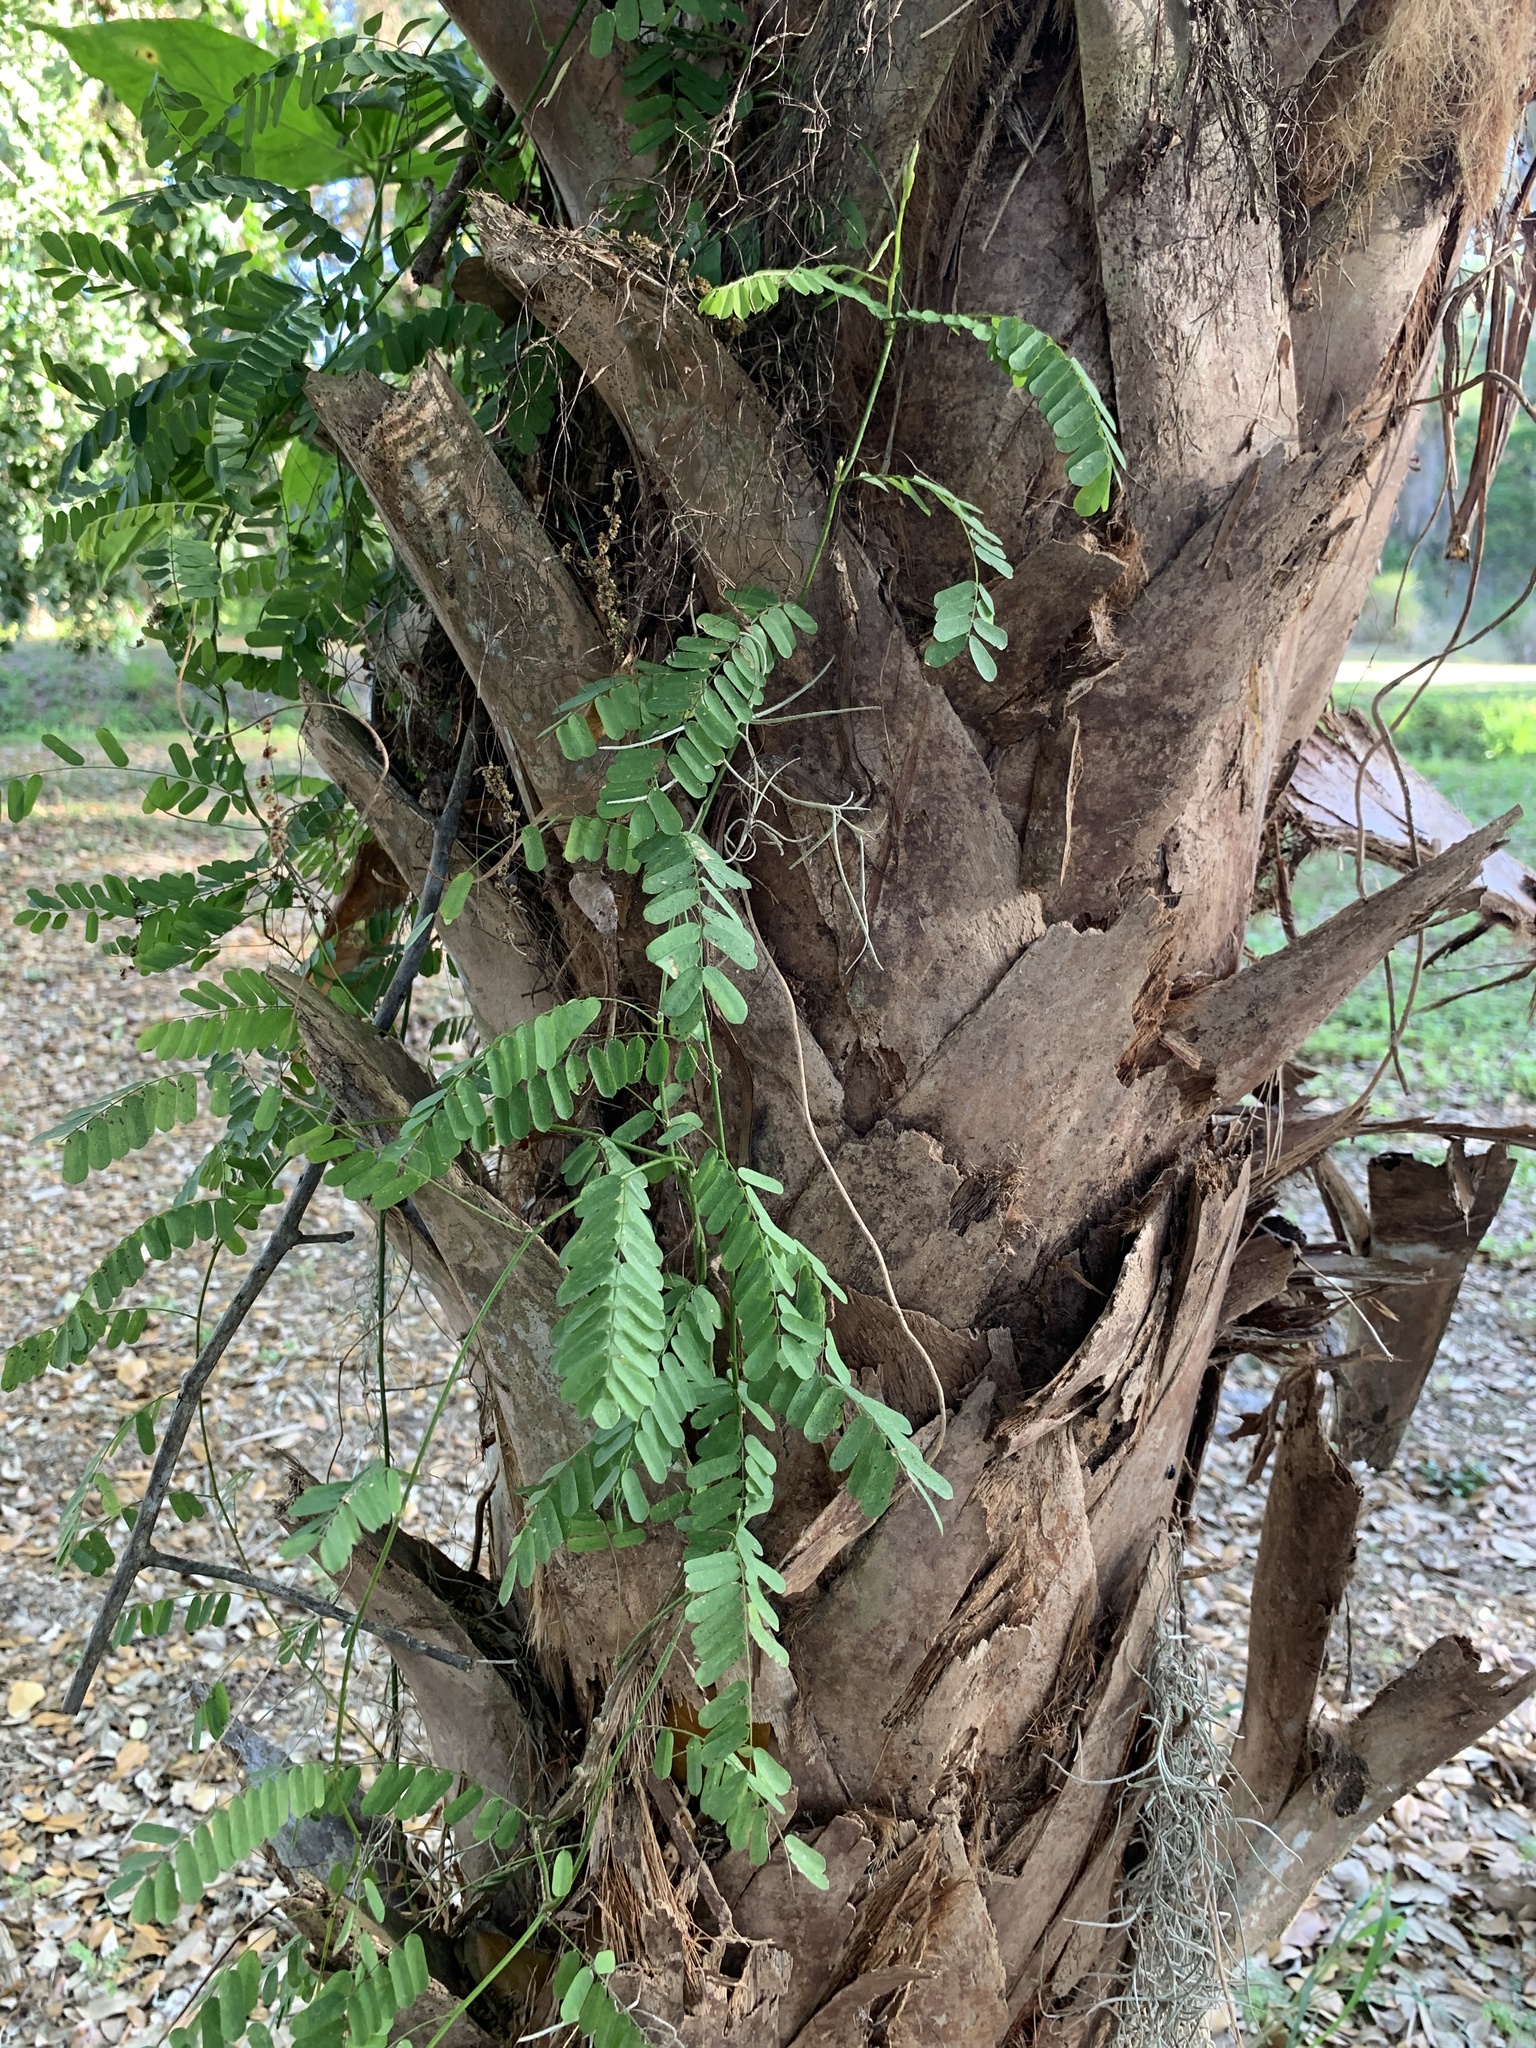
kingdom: Plantae
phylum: Tracheophyta
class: Magnoliopsida
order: Fabales
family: Fabaceae
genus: Abrus
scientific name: Abrus precatorius
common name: Rosarypea
